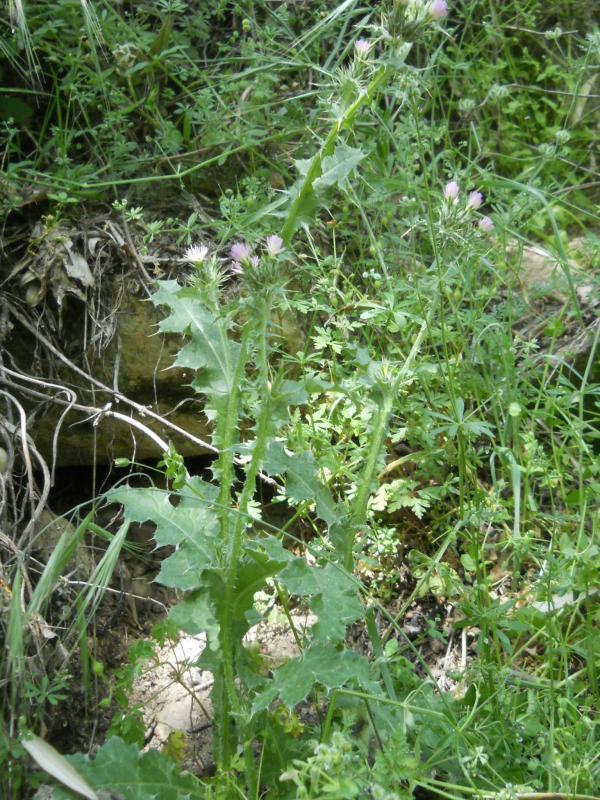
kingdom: Plantae
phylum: Tracheophyta
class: Magnoliopsida
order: Asterales
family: Asteraceae
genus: Carduus
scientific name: Carduus tenuiflorus
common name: Slender thistle
